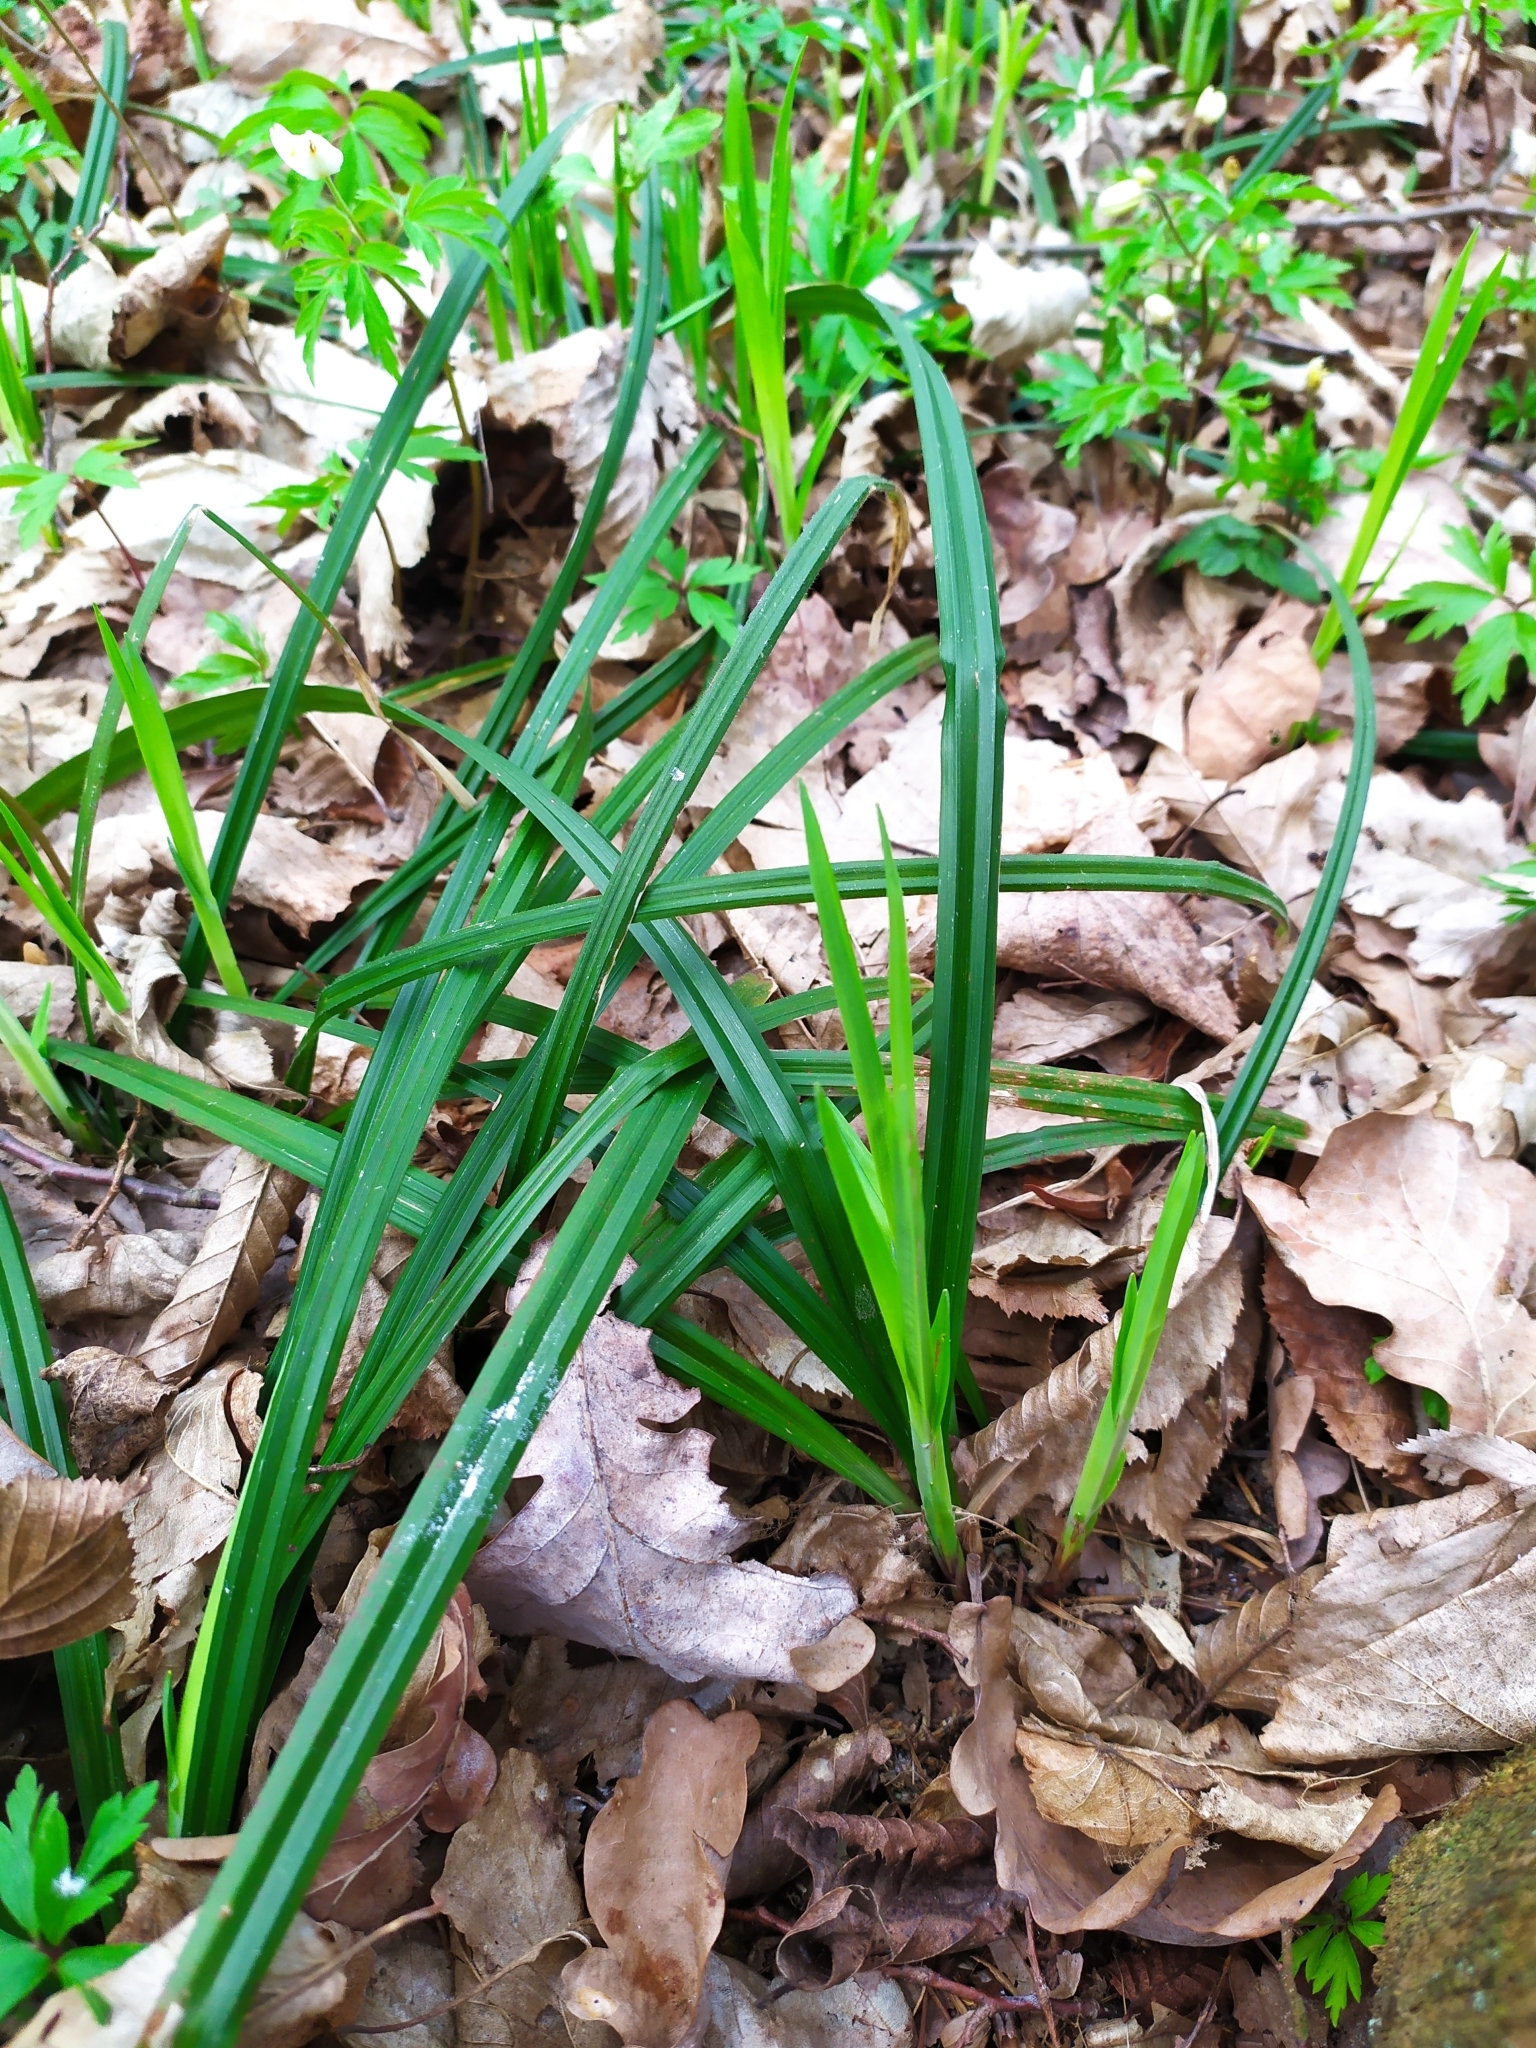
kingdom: Plantae
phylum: Tracheophyta
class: Liliopsida
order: Poales
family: Cyperaceae
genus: Carex
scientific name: Carex pilosa
